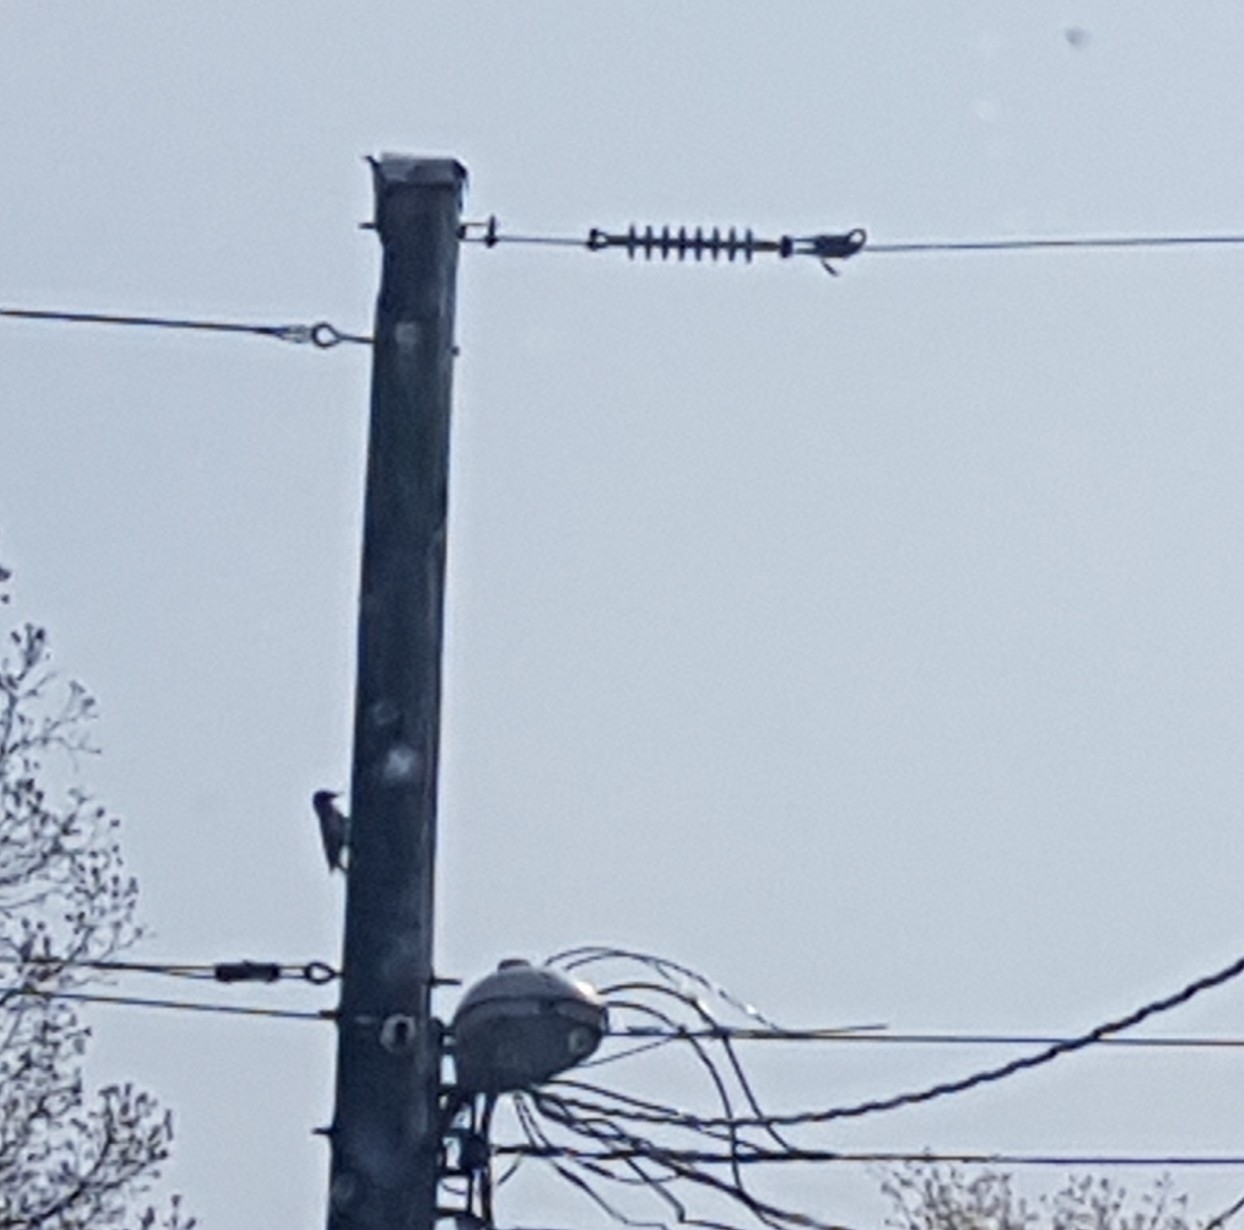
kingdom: Animalia
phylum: Chordata
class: Aves
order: Piciformes
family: Picidae
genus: Colaptes
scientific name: Colaptes auratus
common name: Northern flicker
